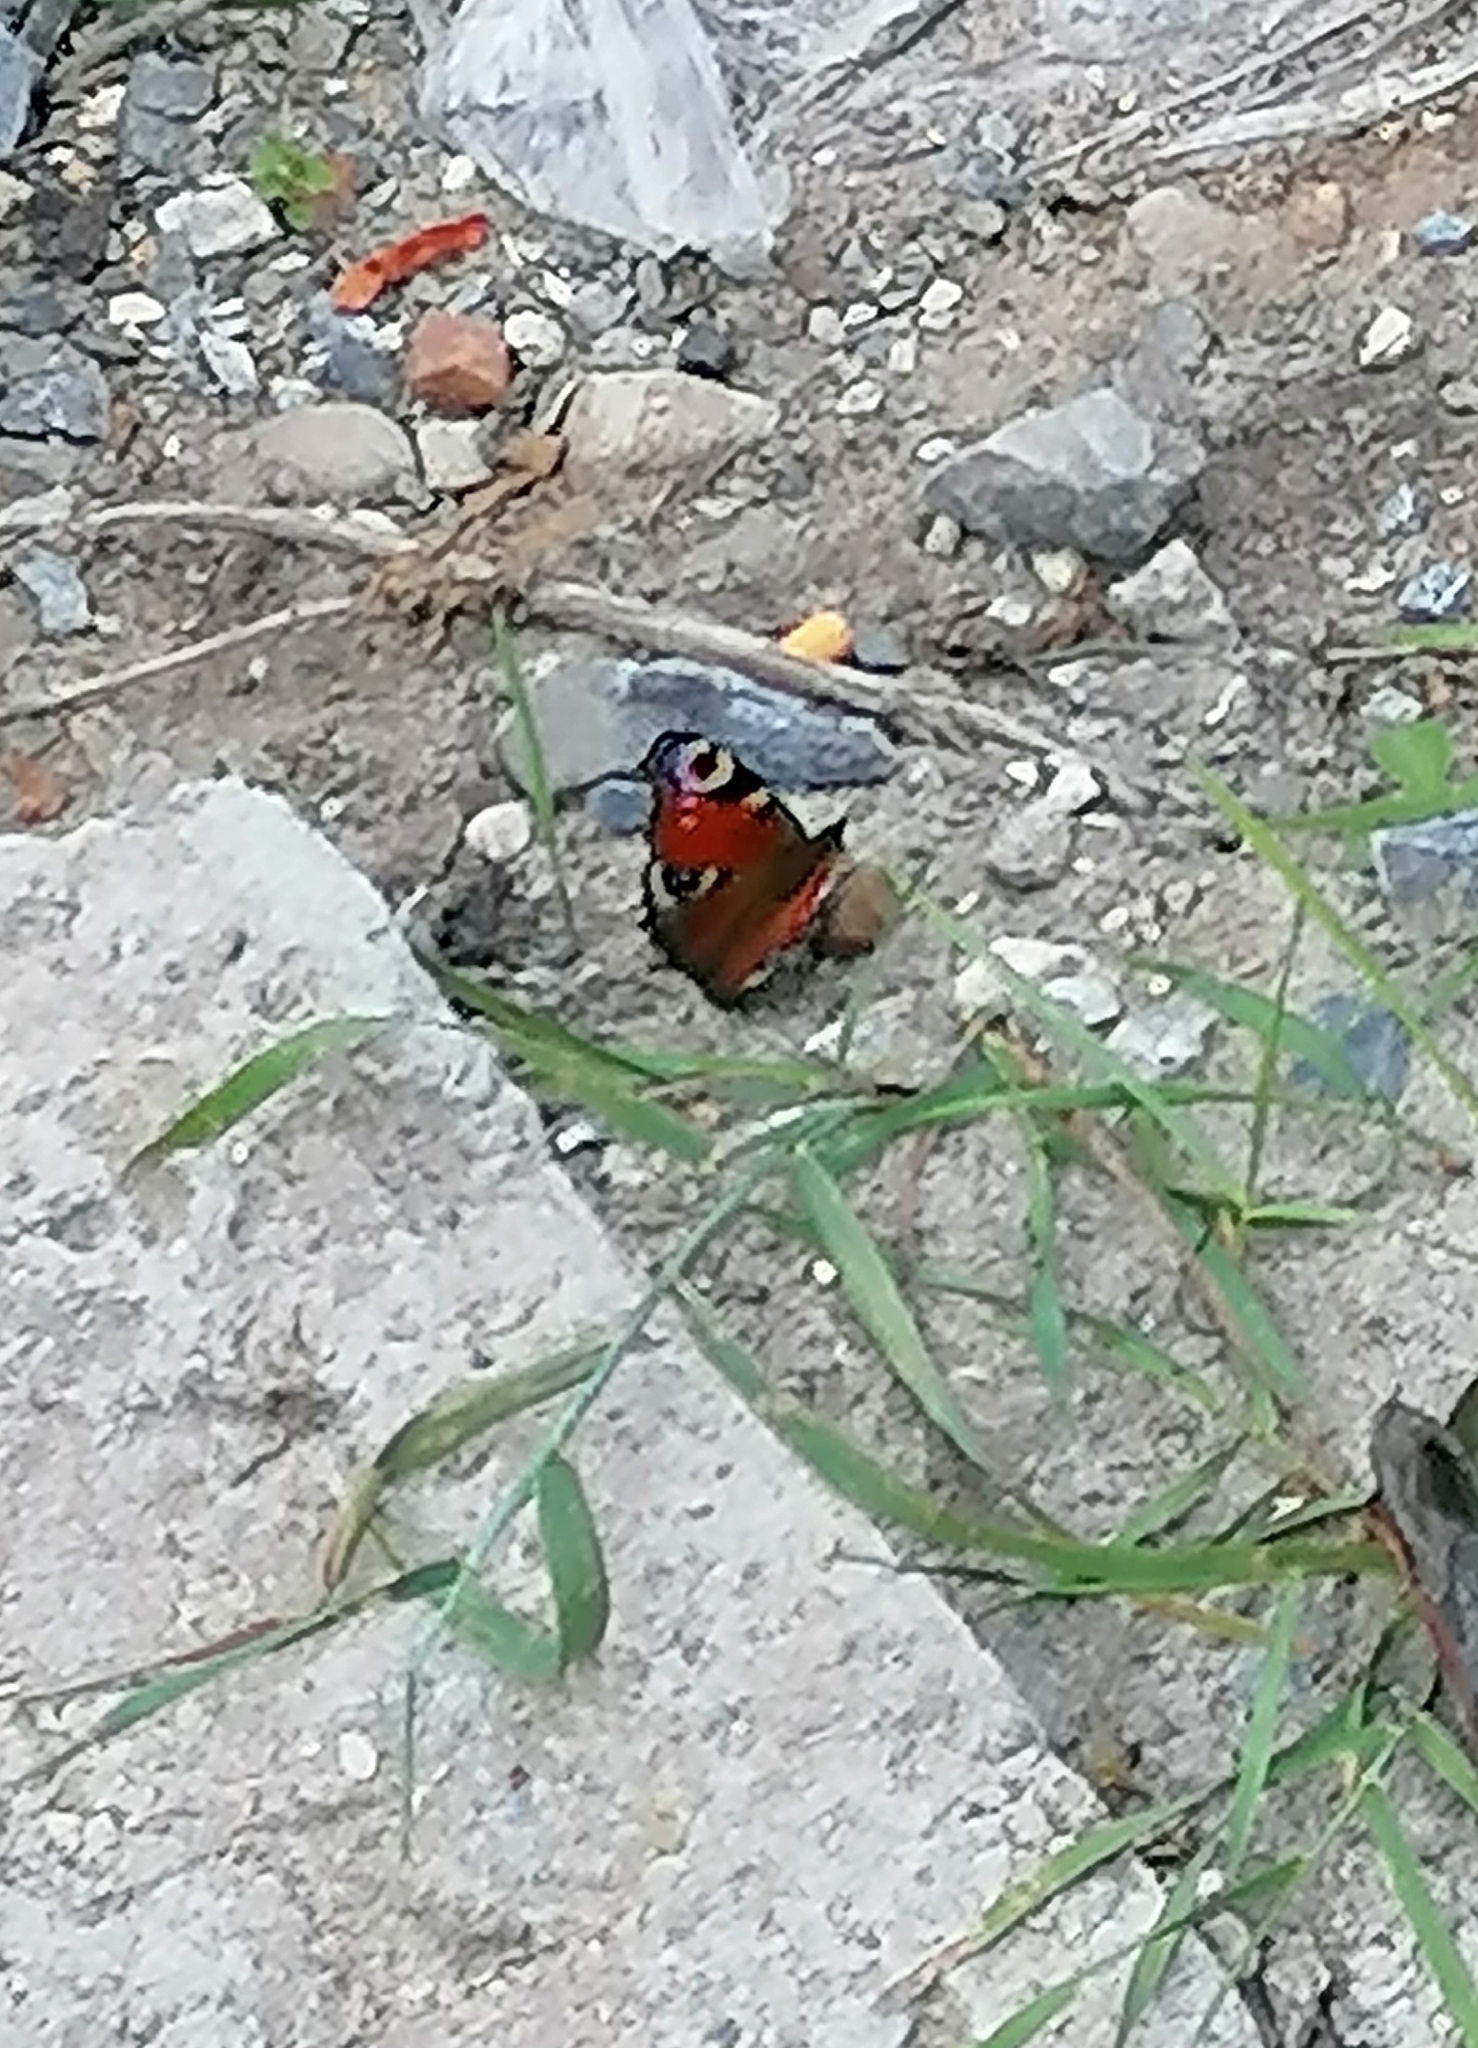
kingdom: Animalia
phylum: Arthropoda
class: Insecta
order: Lepidoptera
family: Nymphalidae
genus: Aglais
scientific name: Aglais io
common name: Peacock
